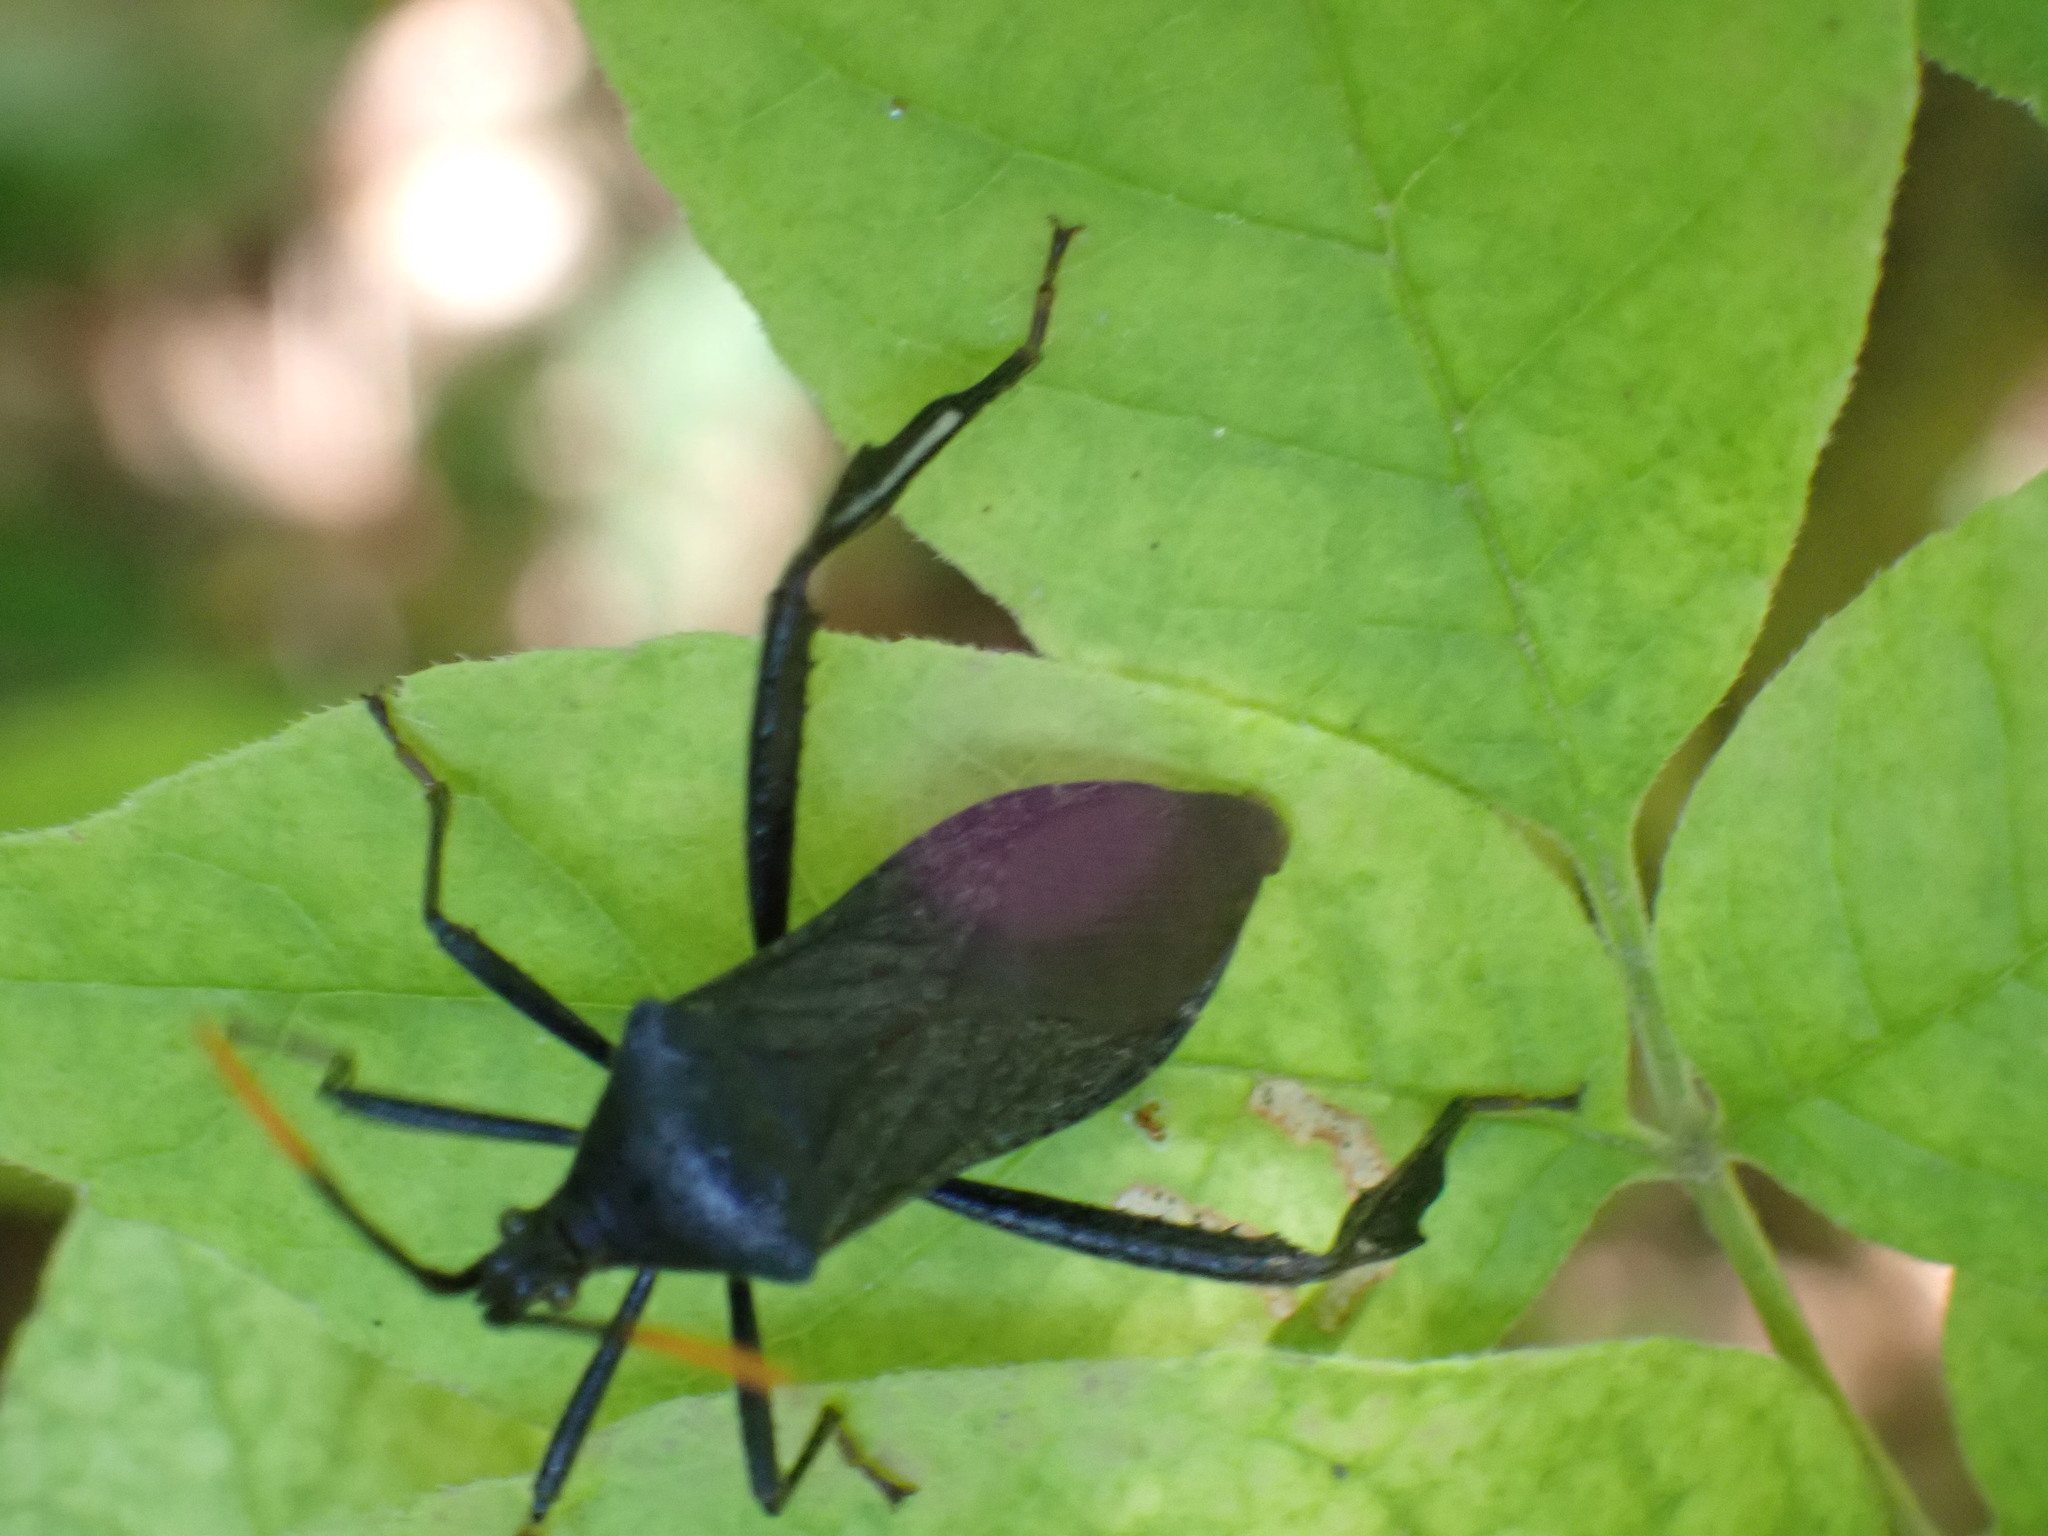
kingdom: Animalia
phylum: Arthropoda
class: Insecta
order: Hemiptera
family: Coreidae
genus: Acanthocephala
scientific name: Acanthocephala terminalis
